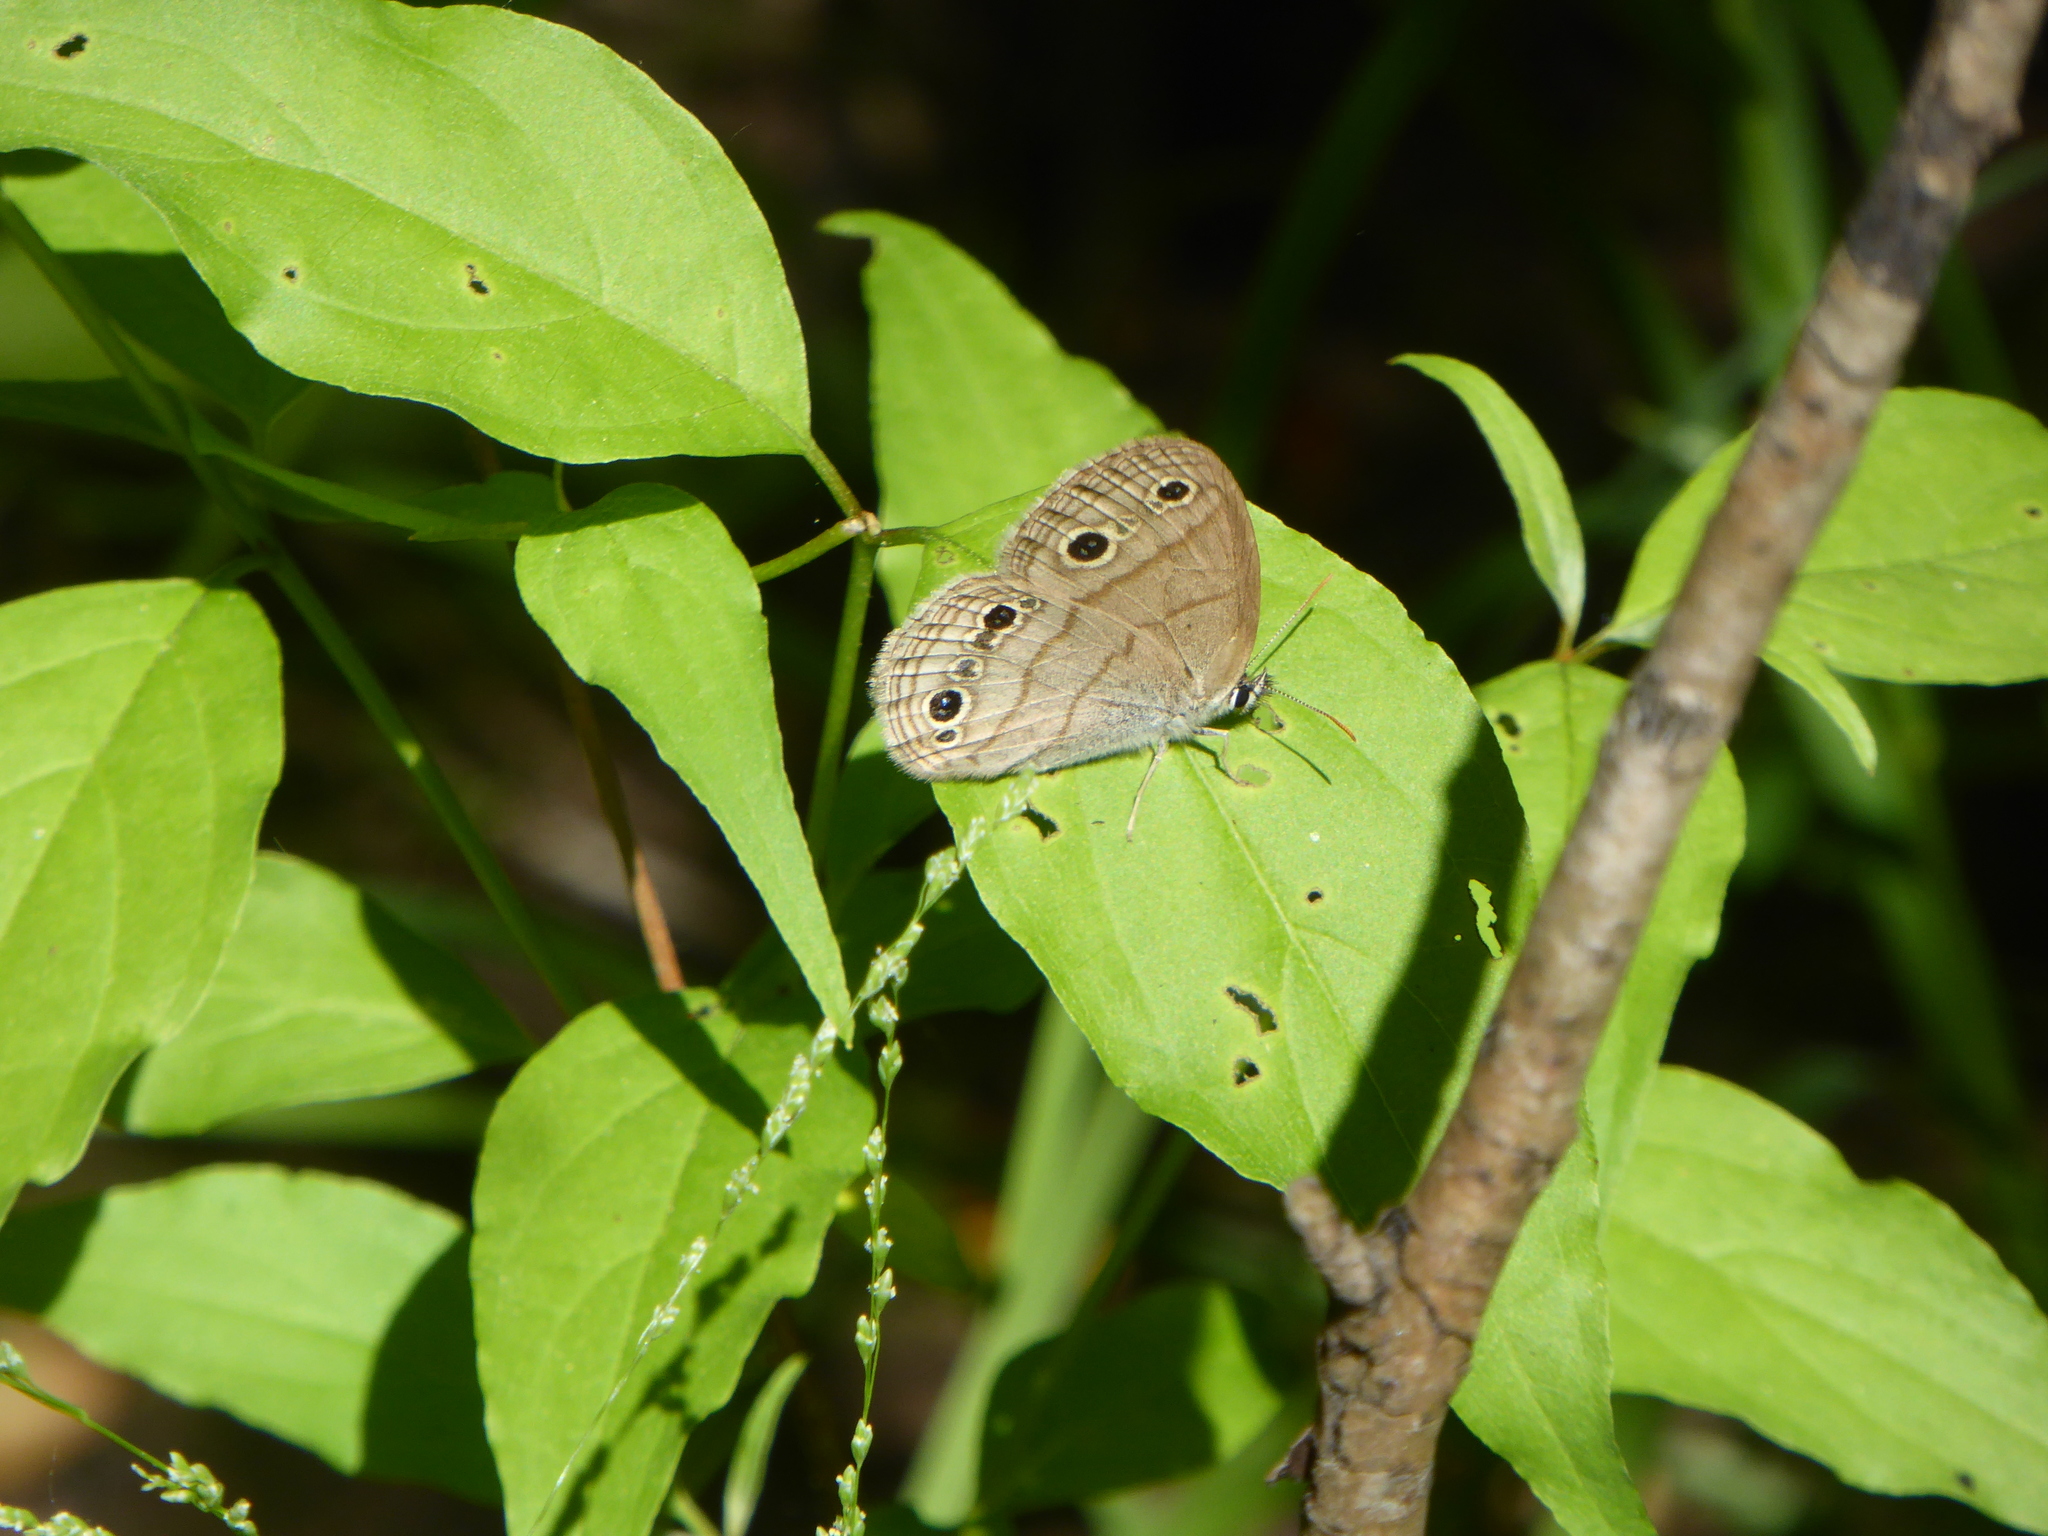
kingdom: Animalia
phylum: Arthropoda
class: Insecta
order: Lepidoptera
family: Nymphalidae
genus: Euptychia
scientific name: Euptychia cymela
